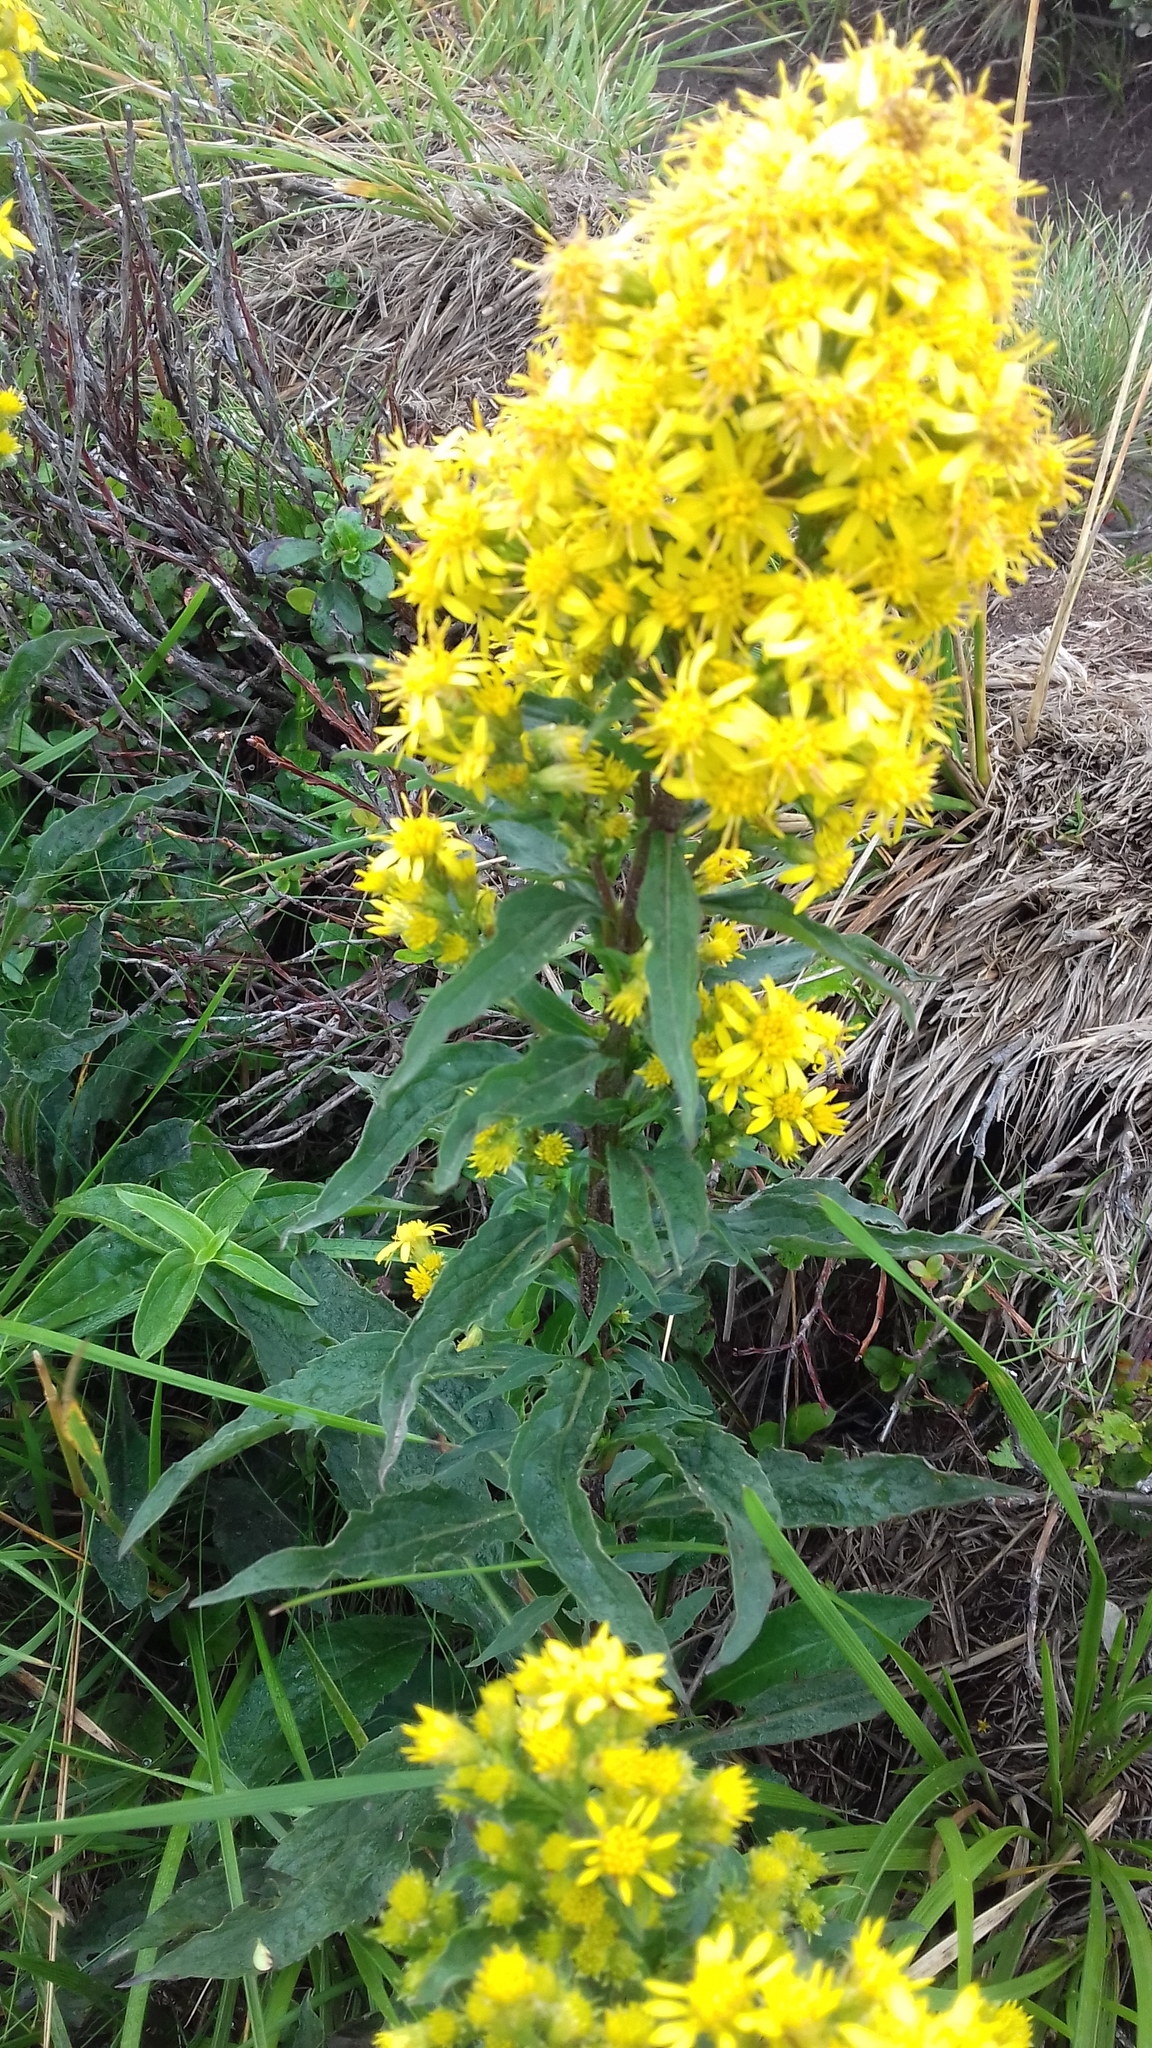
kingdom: Plantae
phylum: Tracheophyta
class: Magnoliopsida
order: Asterales
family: Asteraceae
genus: Solidago
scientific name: Solidago virgaurea
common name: Goldenrod
